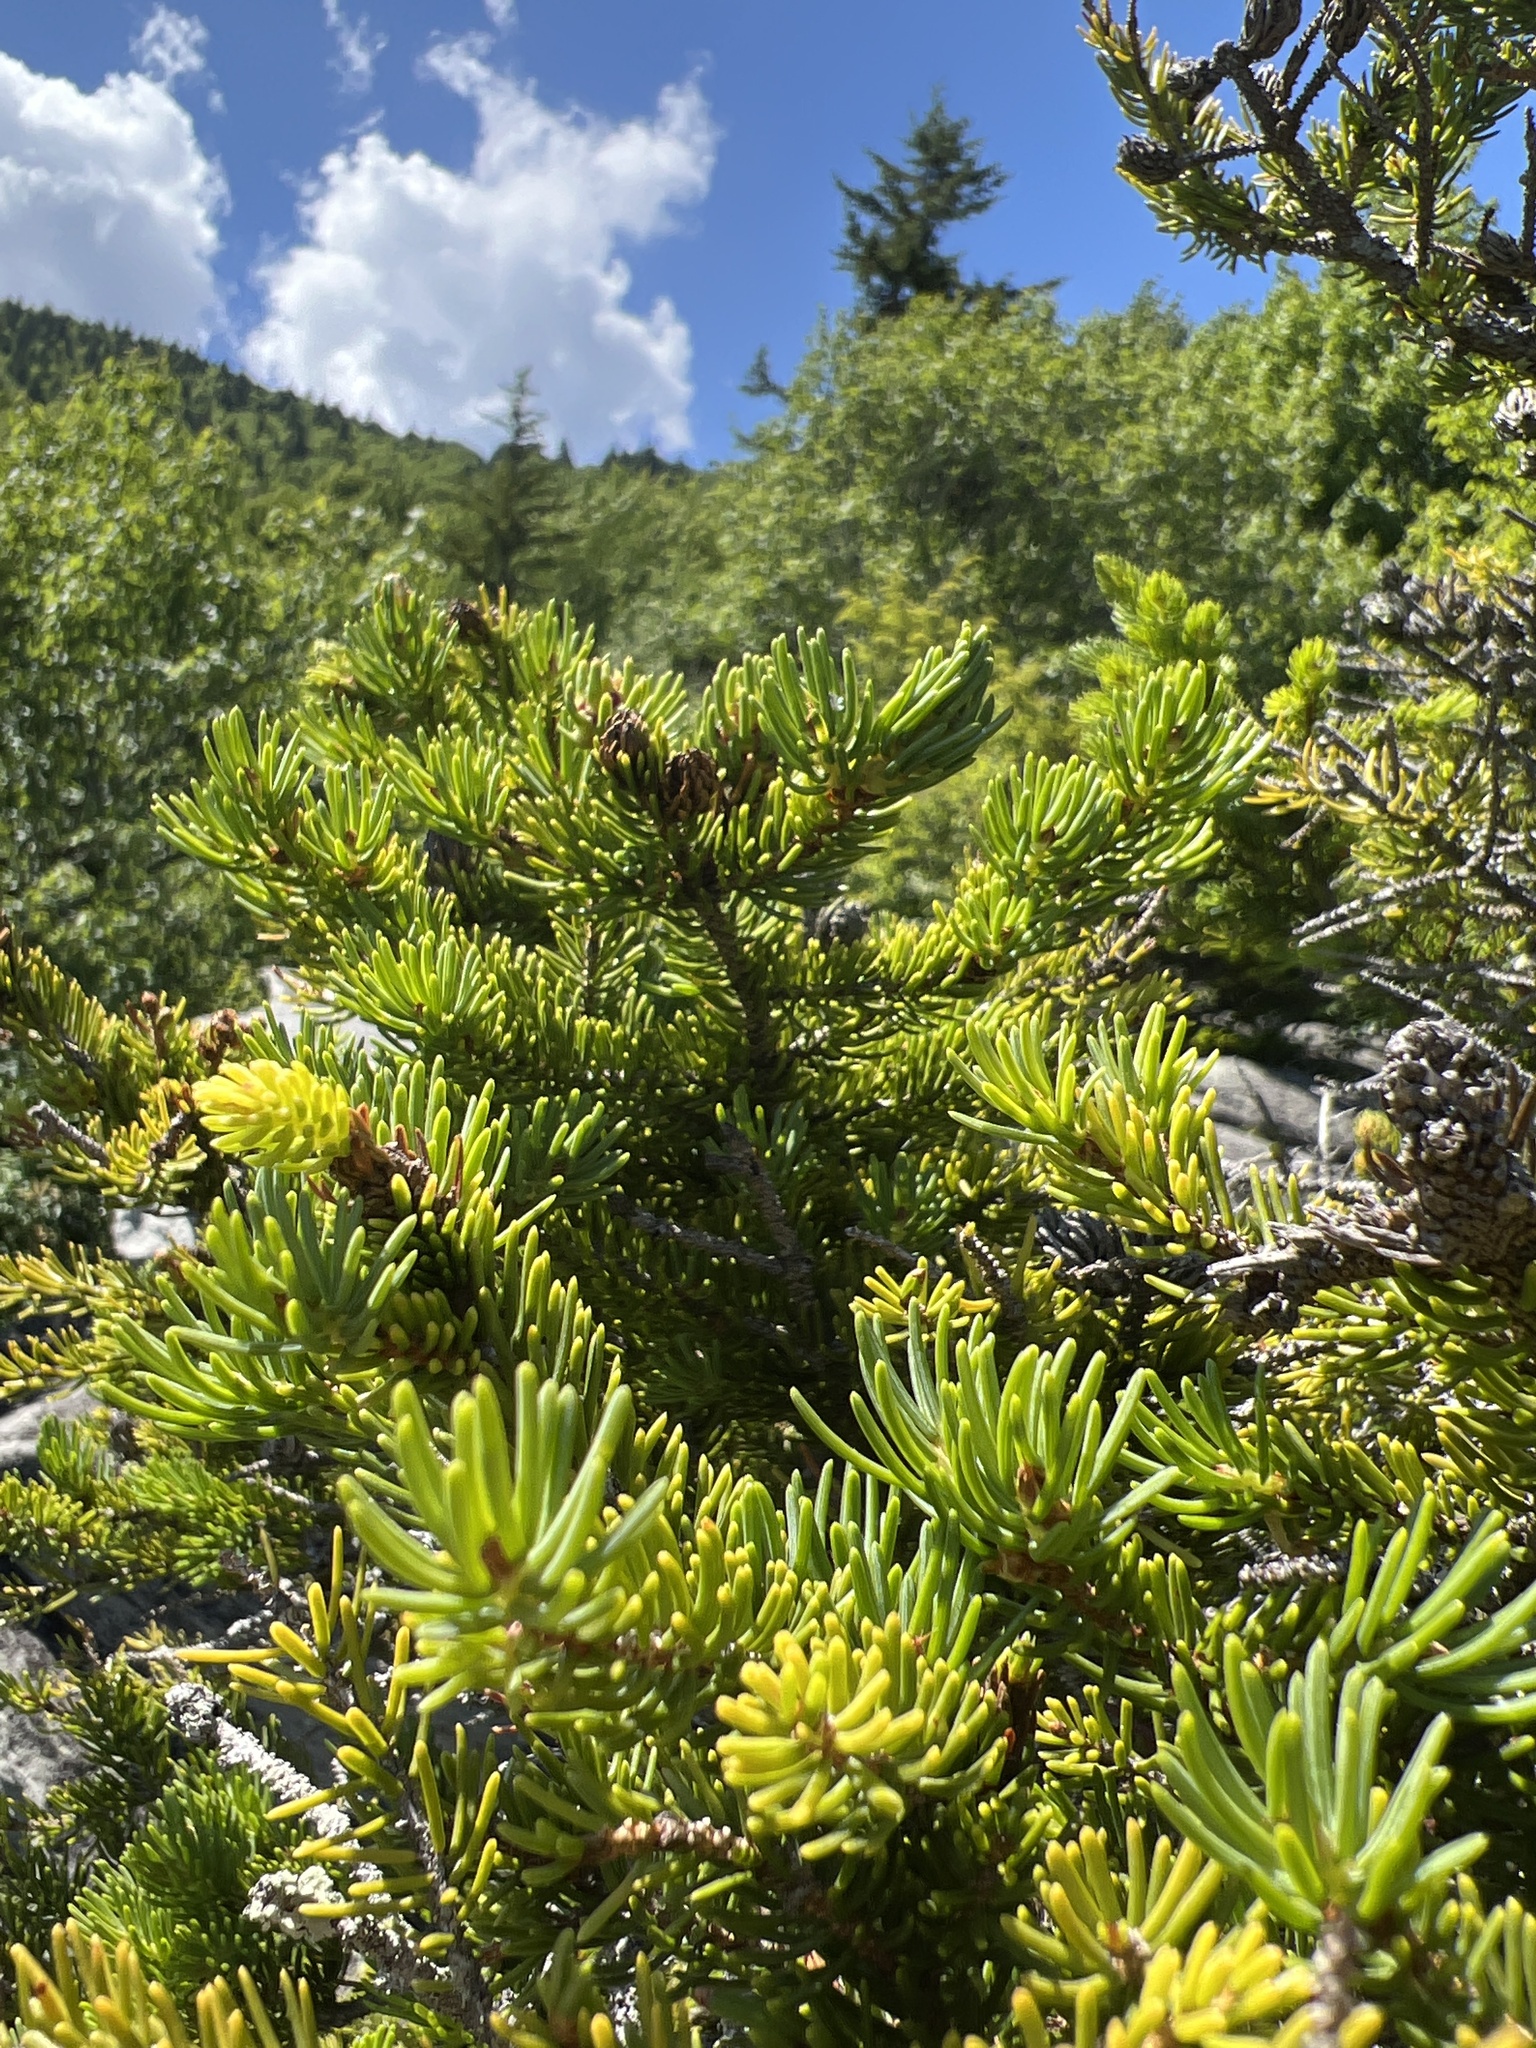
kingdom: Plantae
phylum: Tracheophyta
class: Pinopsida
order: Pinales
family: Pinaceae
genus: Picea
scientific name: Picea rubens
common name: Red spruce
